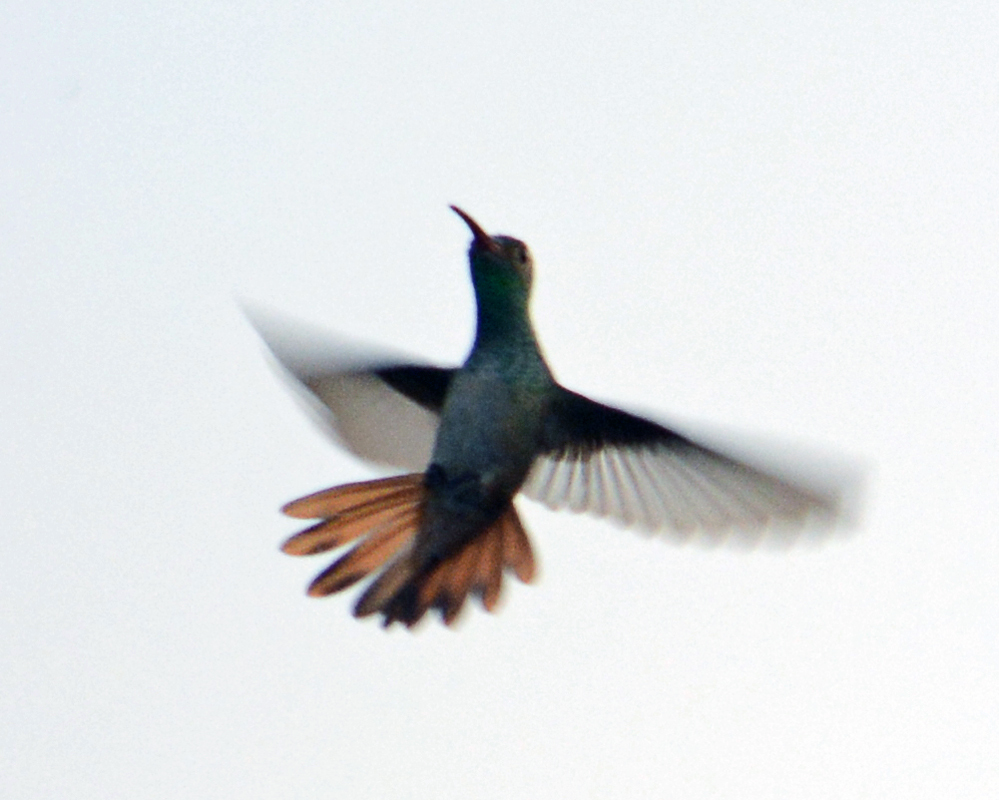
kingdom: Animalia
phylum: Chordata
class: Aves
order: Apodiformes
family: Trochilidae
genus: Amazilia
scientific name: Amazilia yucatanensis
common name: Buff-bellied hummingbird
